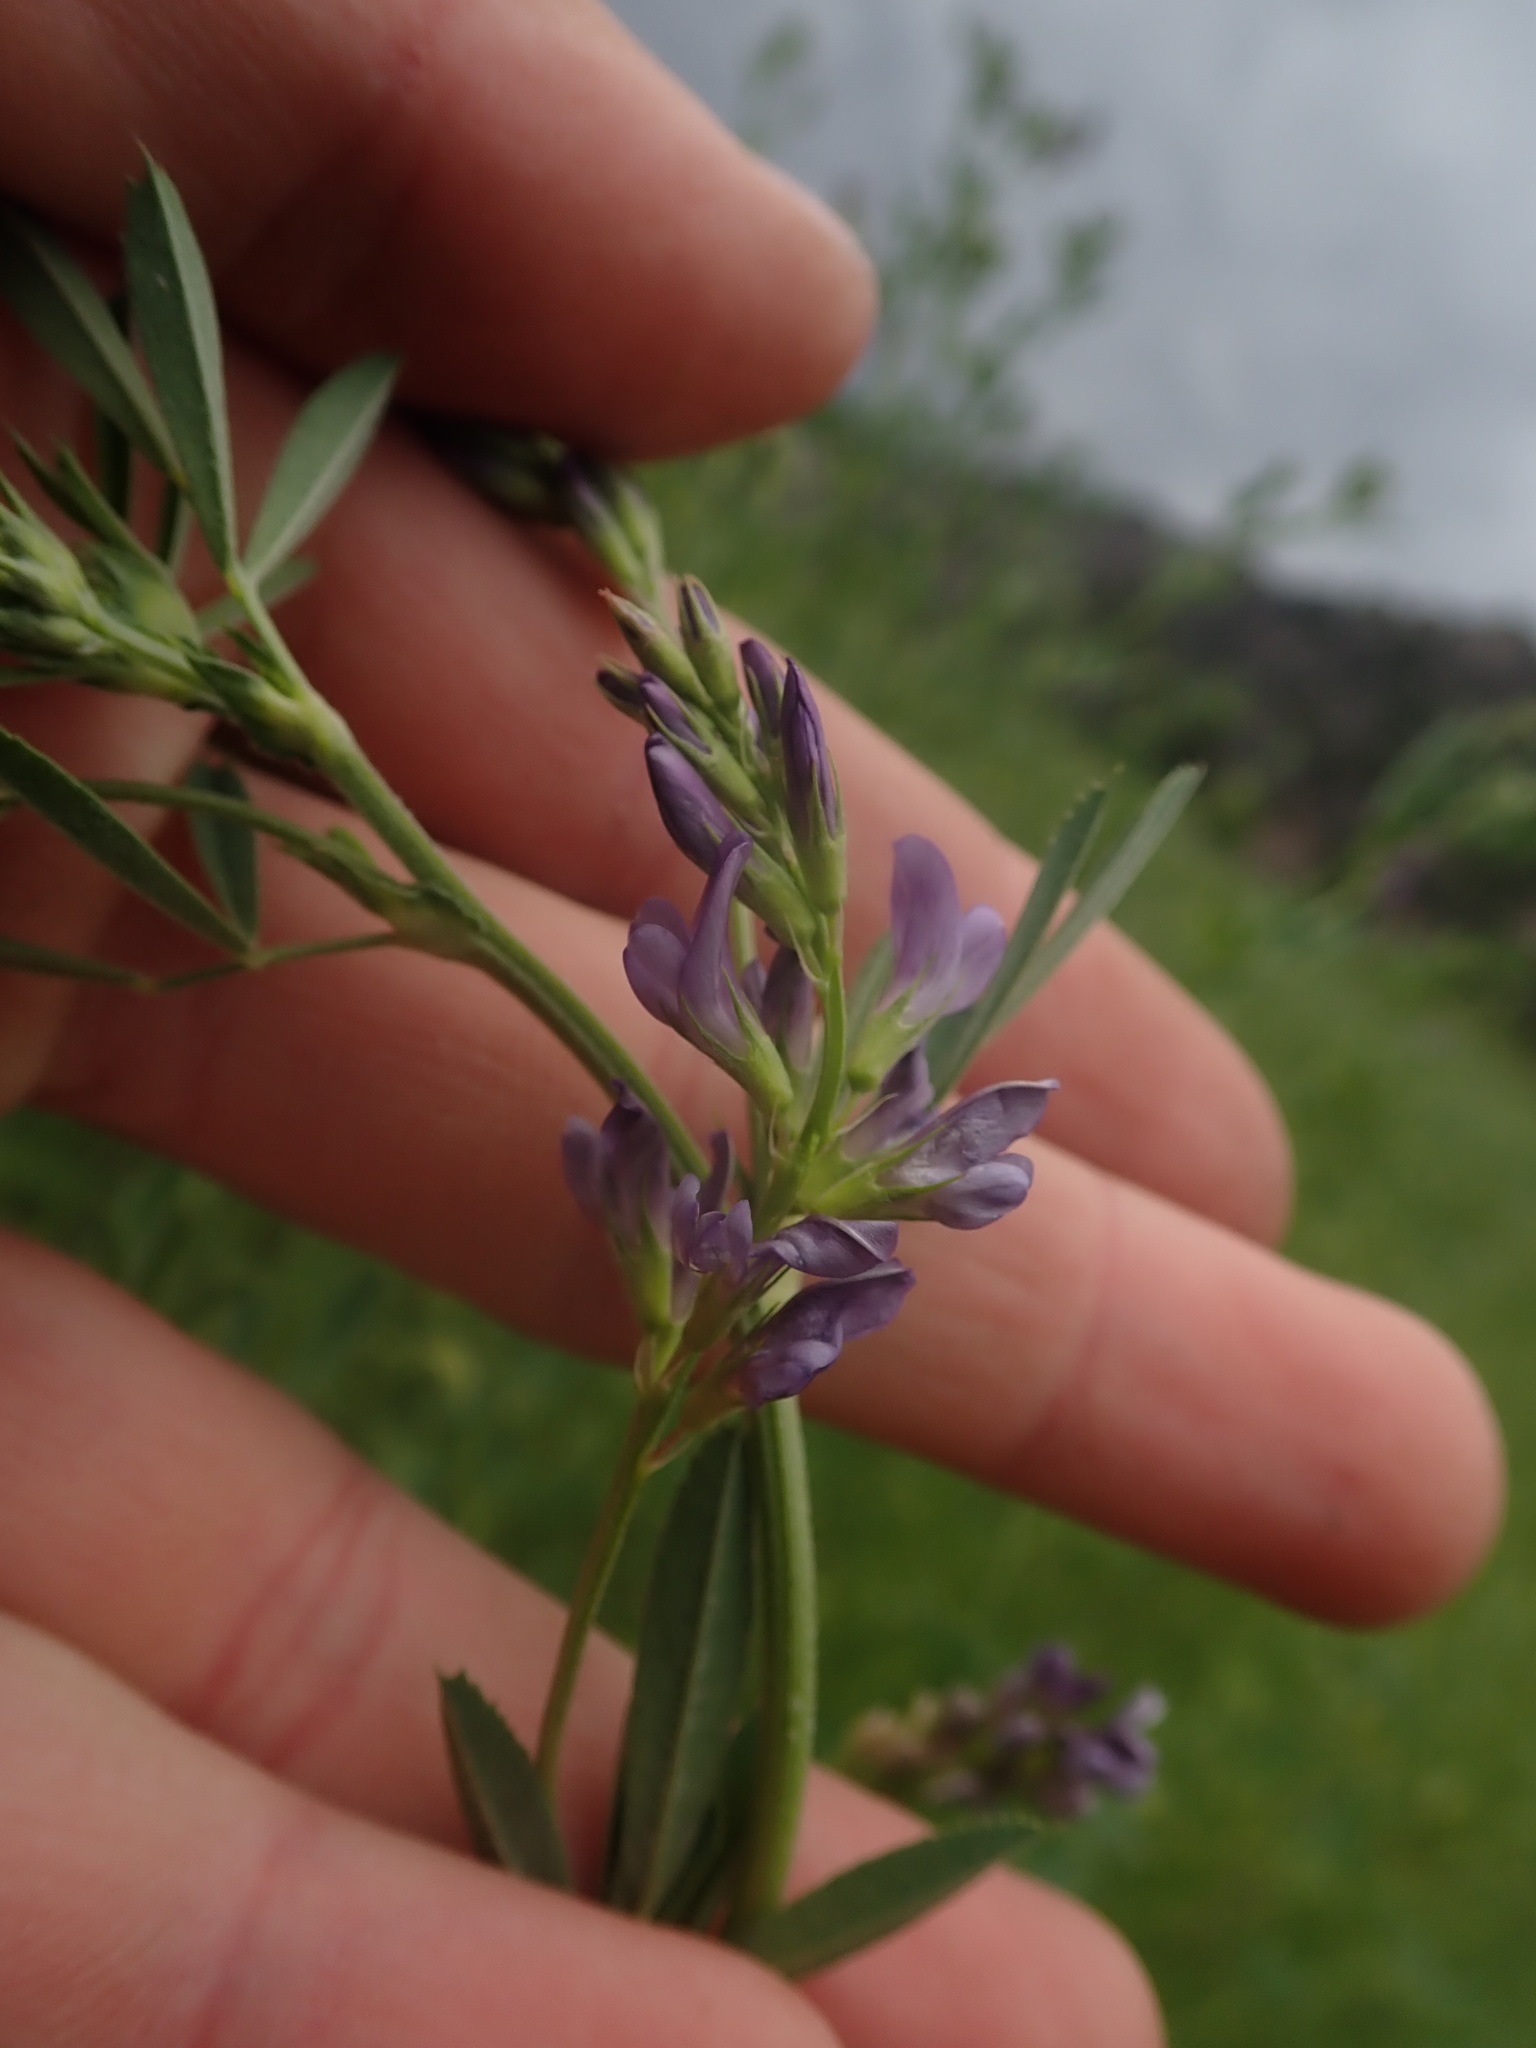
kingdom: Plantae
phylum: Tracheophyta
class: Magnoliopsida
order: Fabales
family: Fabaceae
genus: Medicago
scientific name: Medicago sativa
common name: Alfalfa
